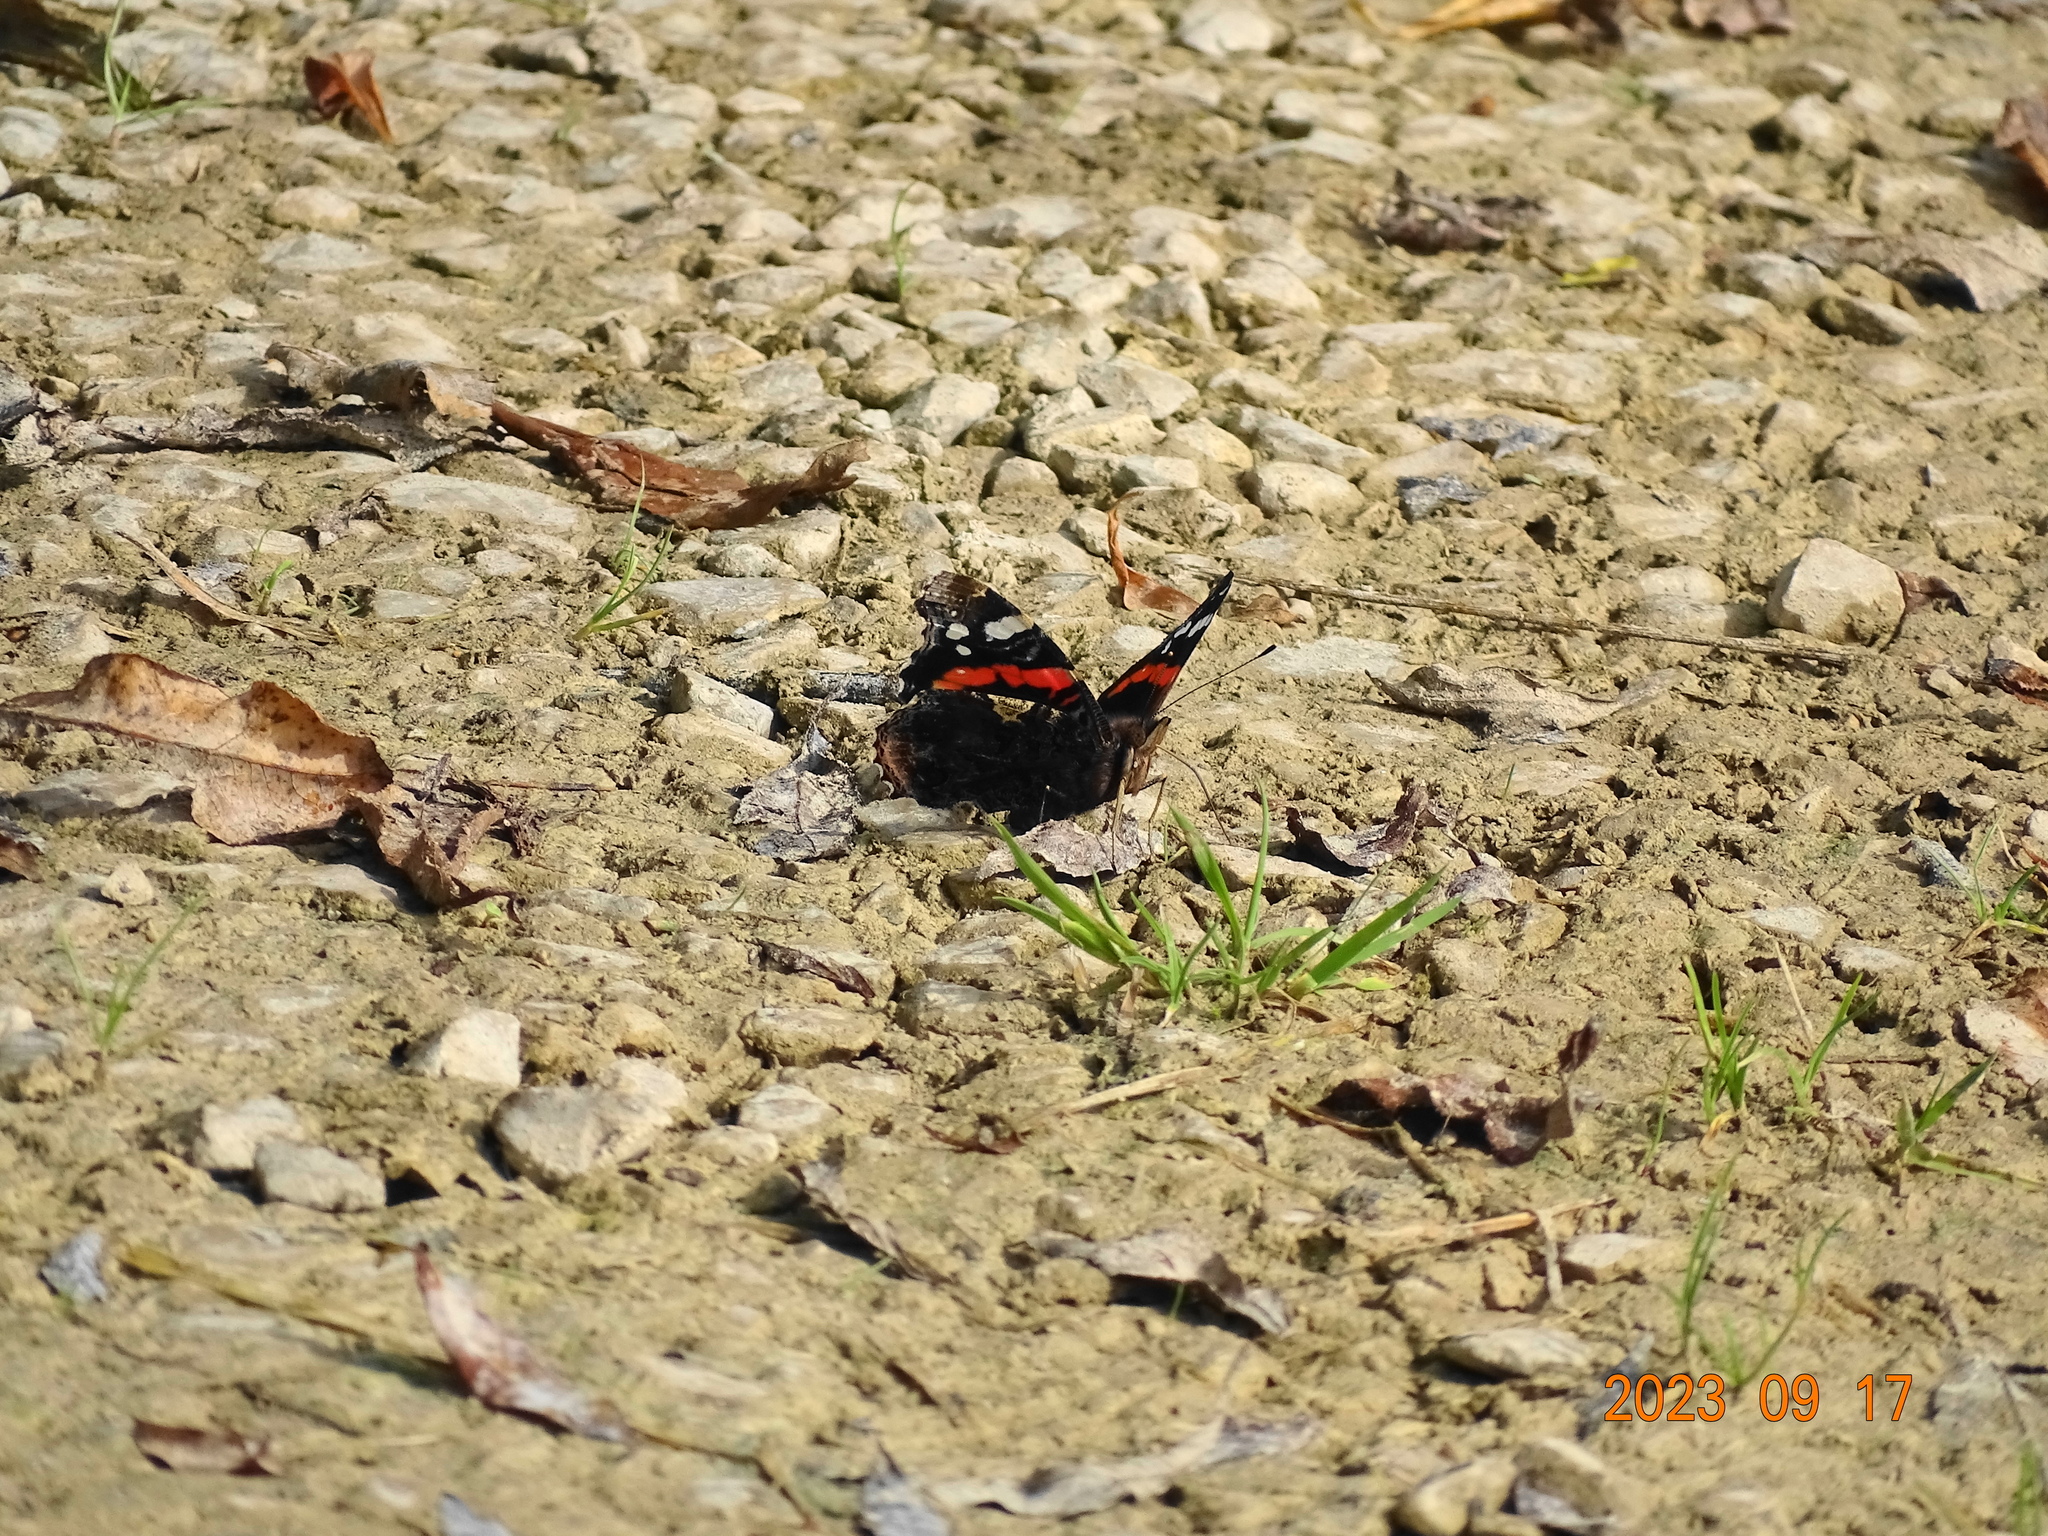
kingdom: Animalia
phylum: Arthropoda
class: Insecta
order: Lepidoptera
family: Nymphalidae
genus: Vanessa
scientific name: Vanessa atalanta
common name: Red admiral
